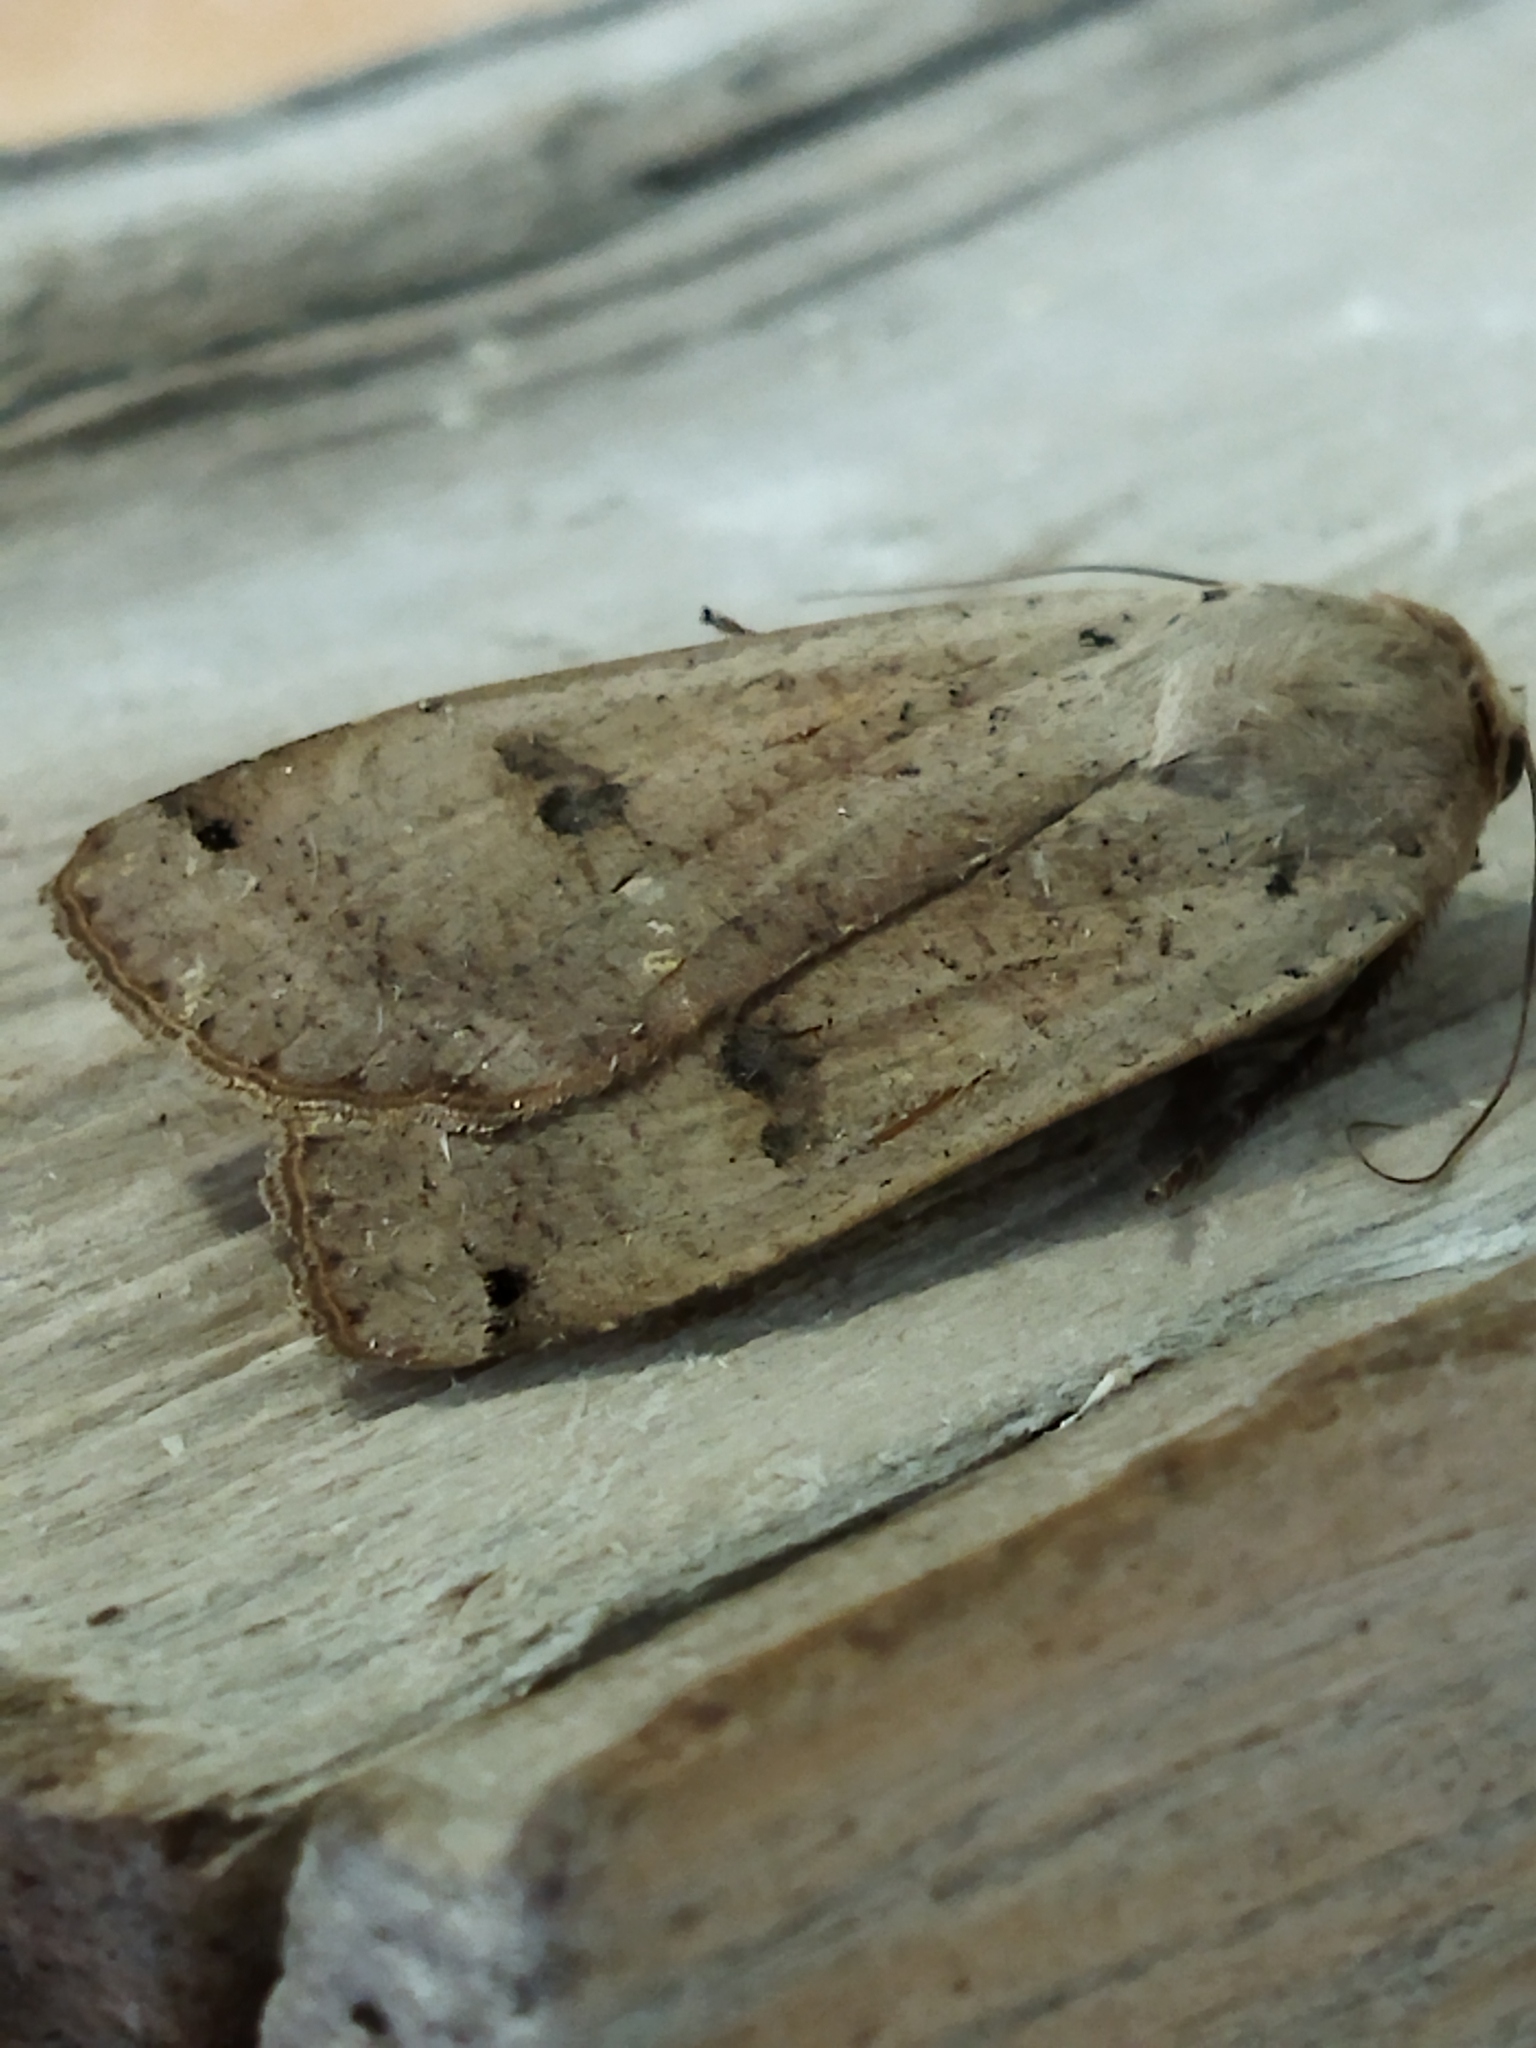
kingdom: Animalia
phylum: Arthropoda
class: Insecta
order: Lepidoptera
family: Noctuidae
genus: Noctua
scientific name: Noctua pronuba
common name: Large yellow underwing
